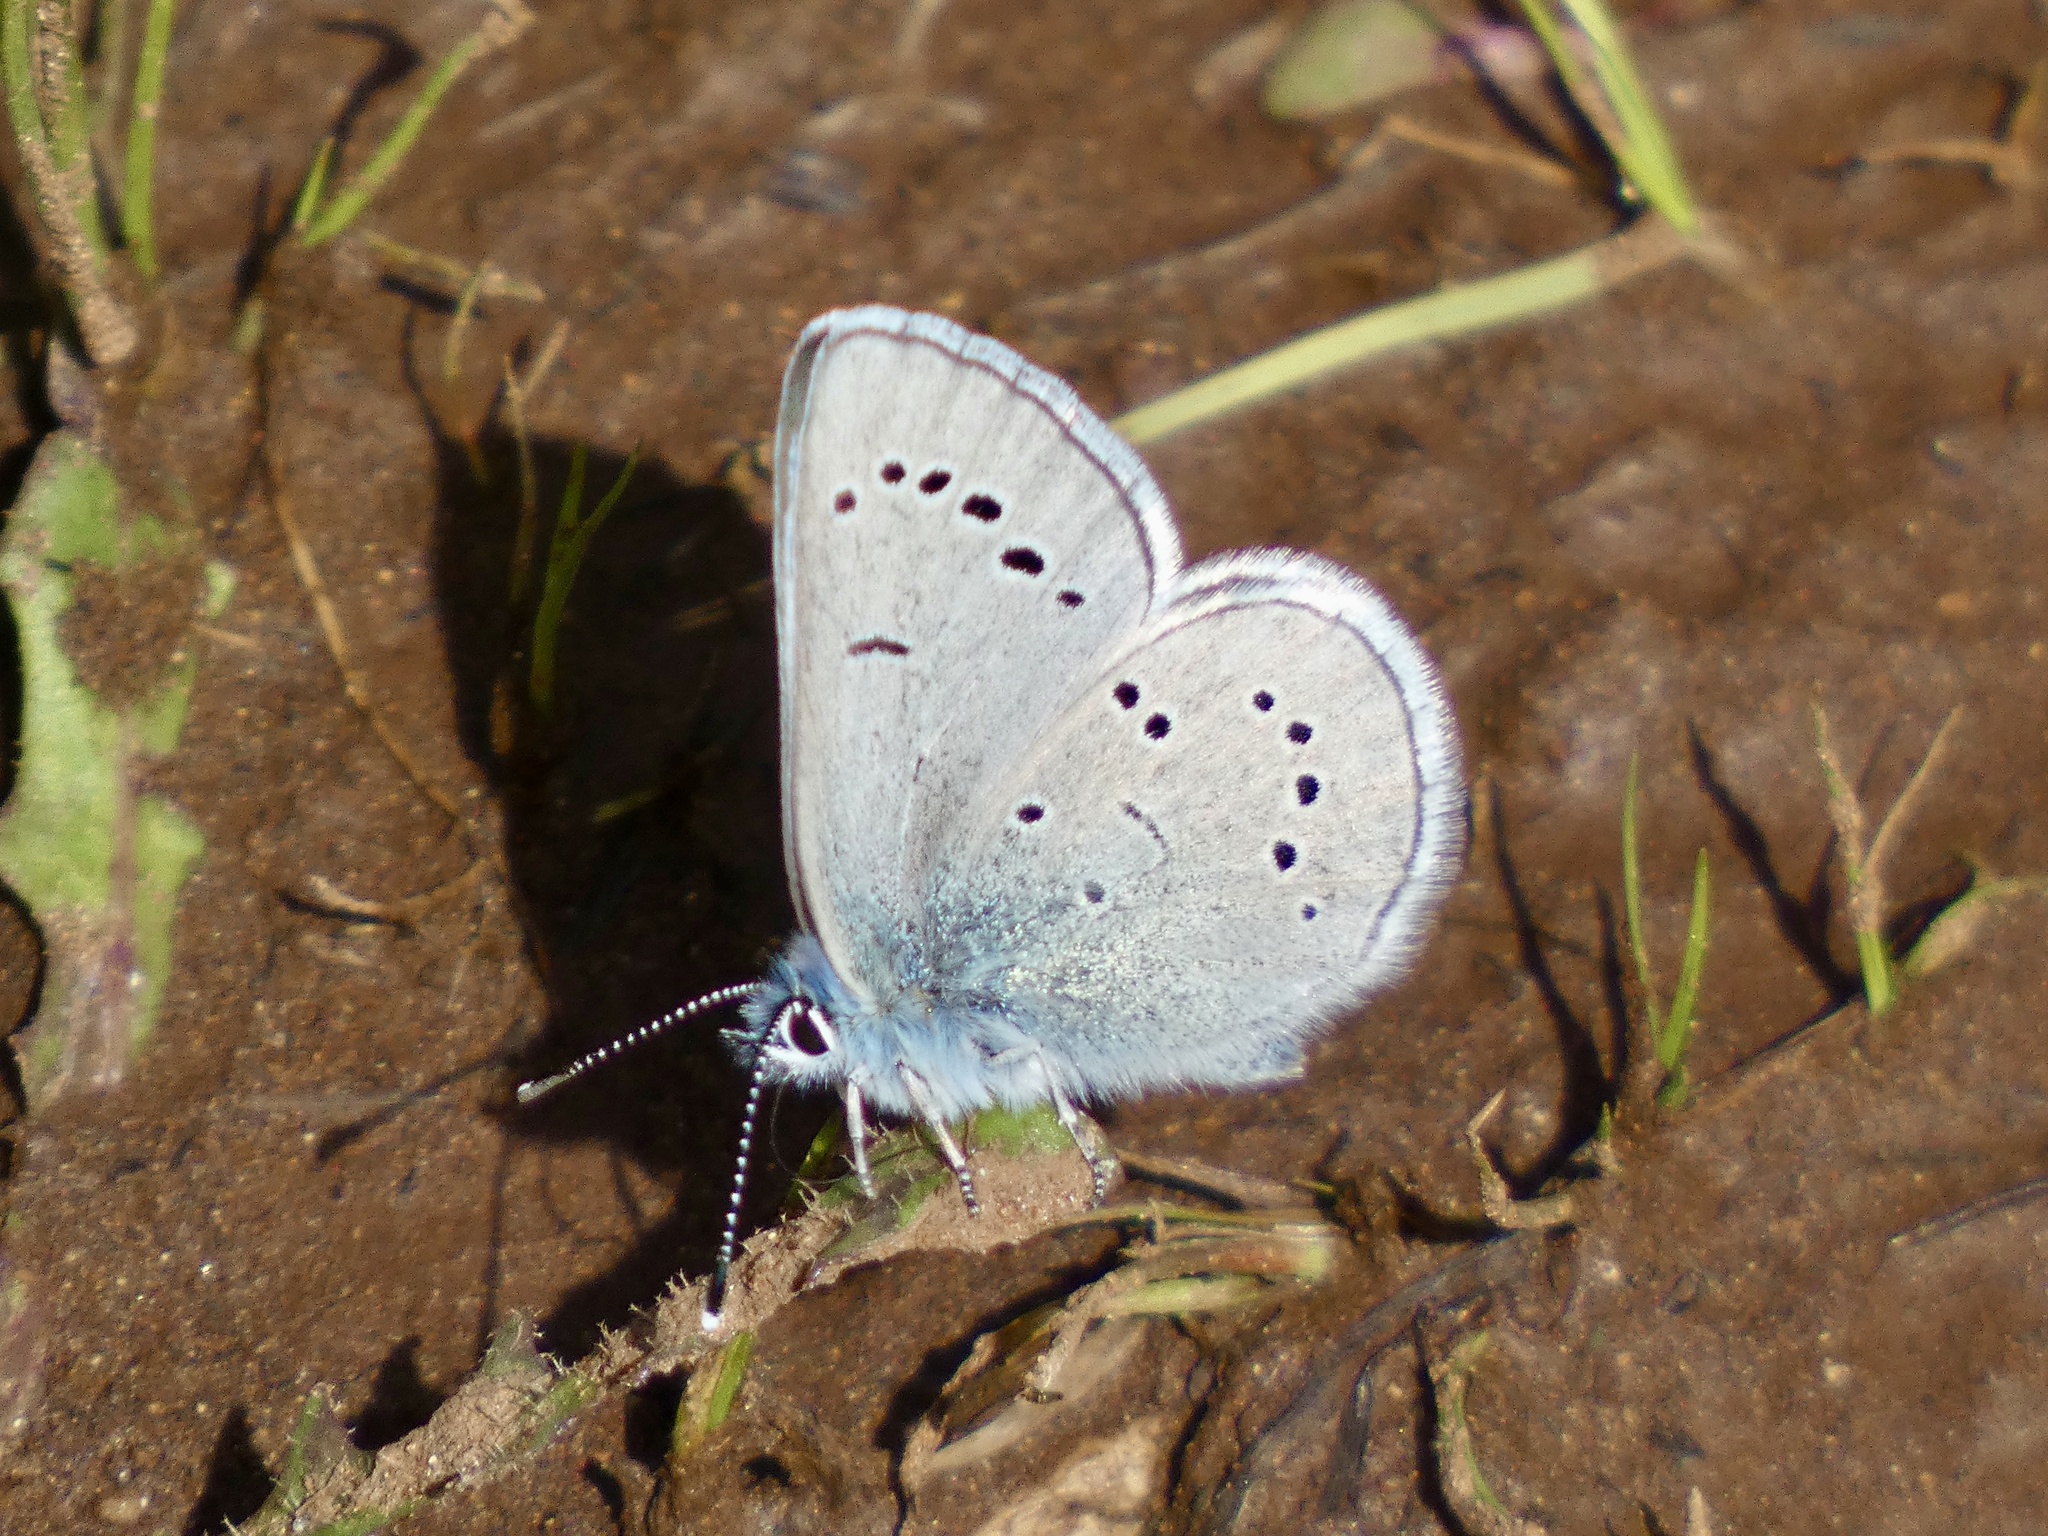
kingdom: Animalia
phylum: Arthropoda
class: Insecta
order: Lepidoptera
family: Lycaenidae
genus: Glaucopsyche
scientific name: Glaucopsyche lygdamus
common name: Silvery blue
